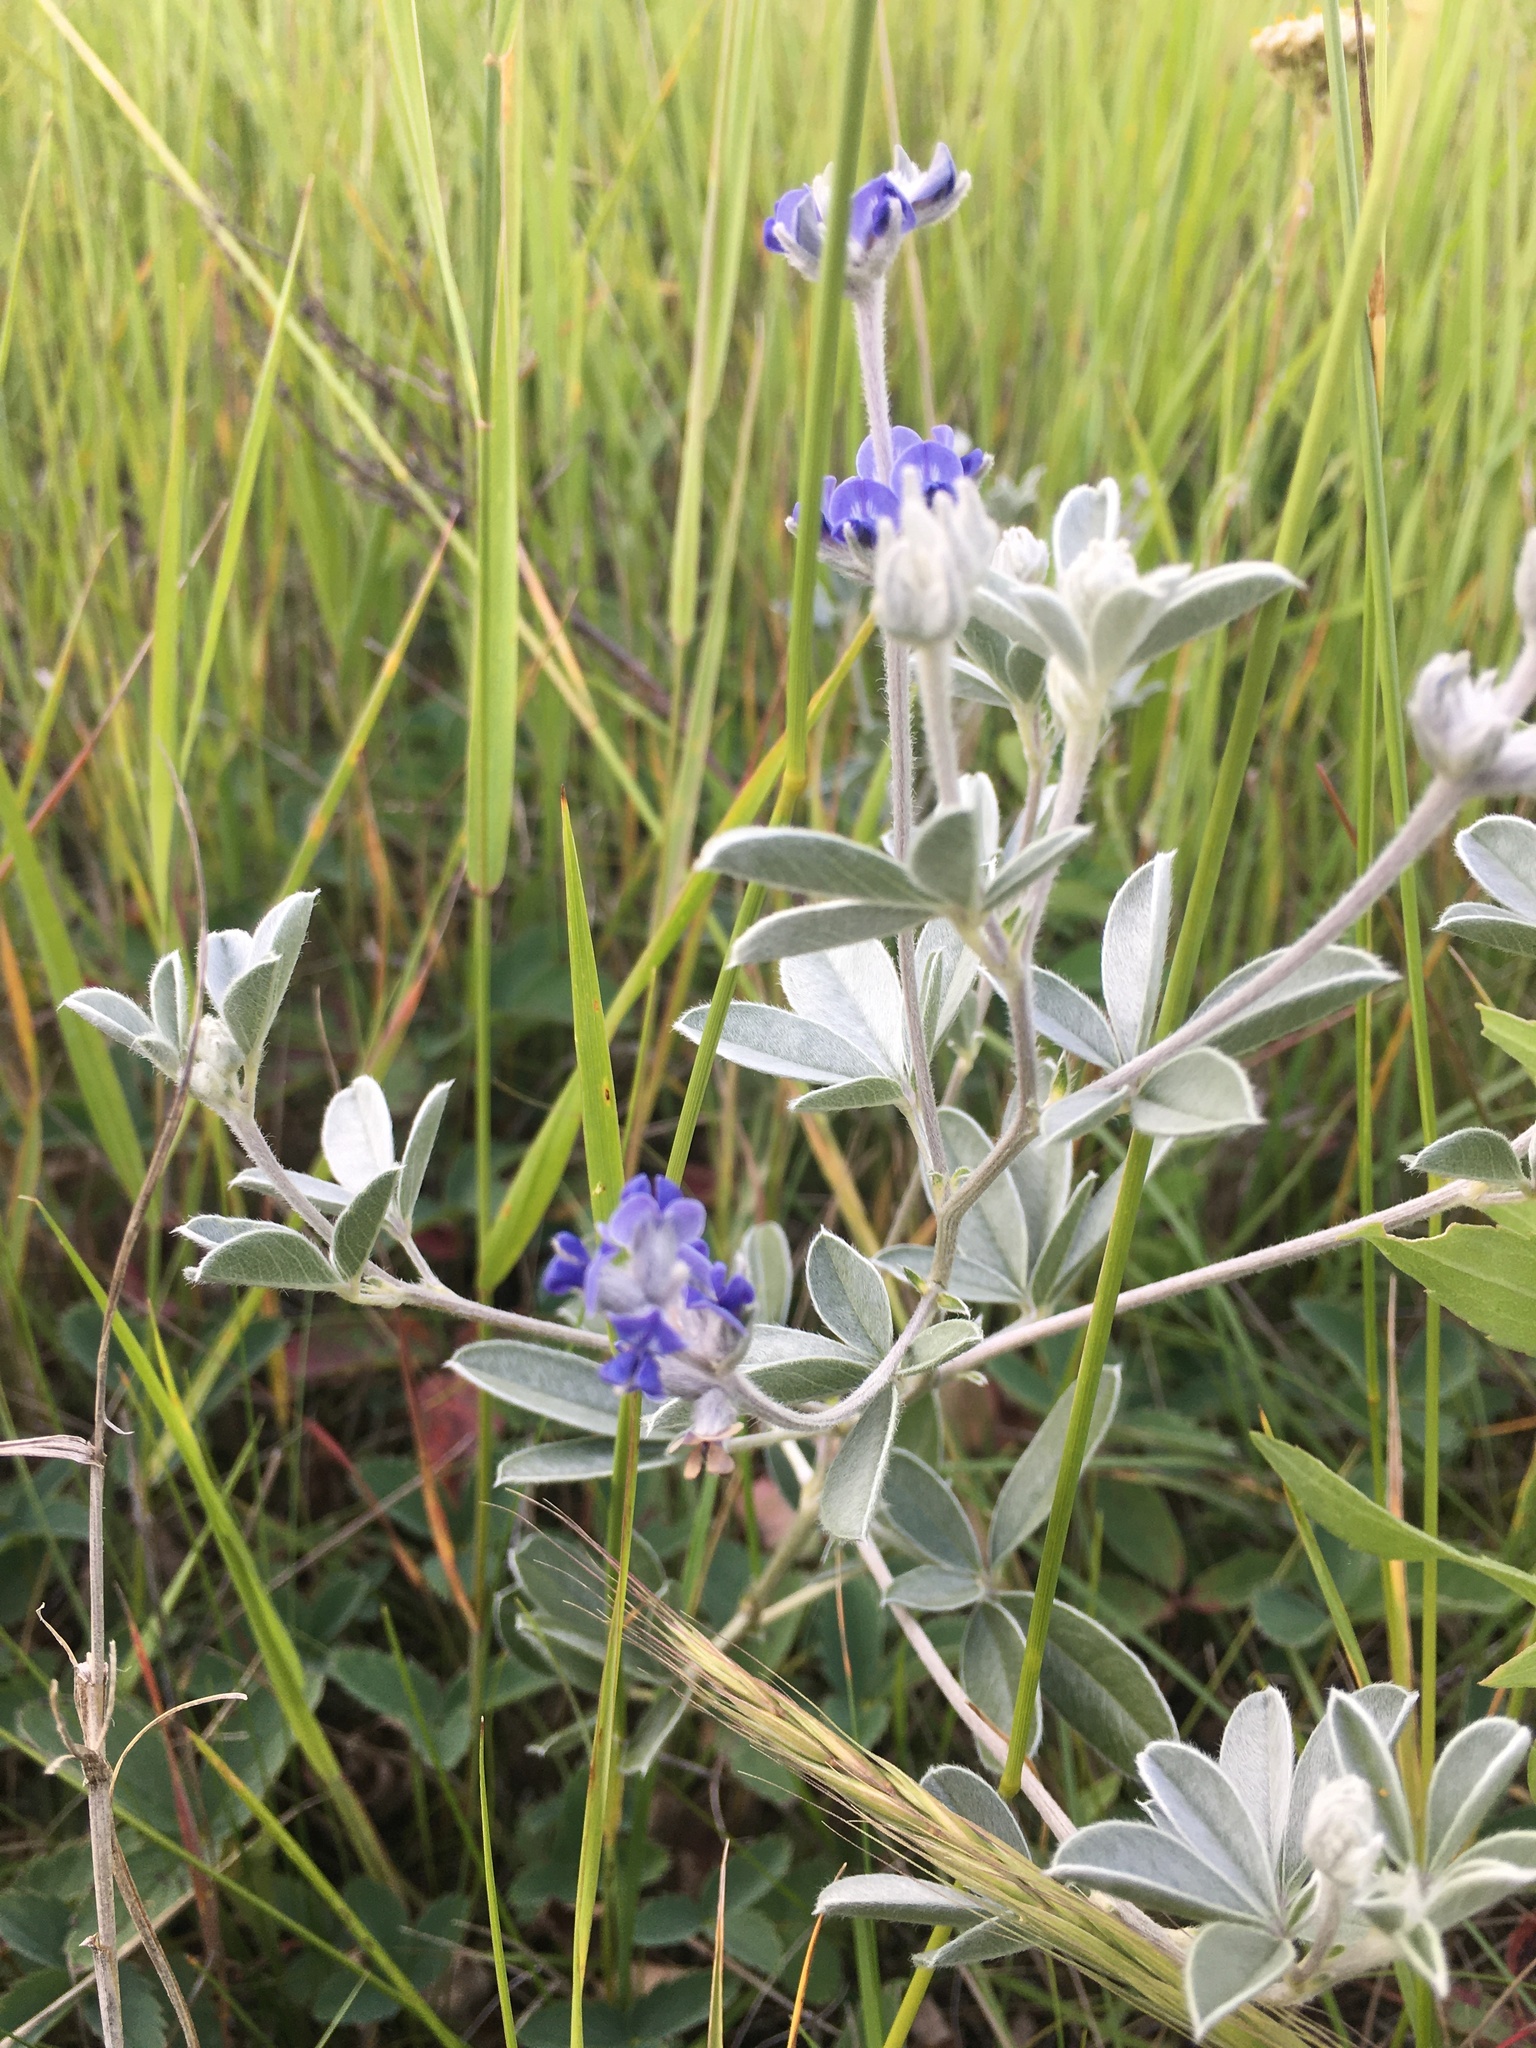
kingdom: Plantae
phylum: Tracheophyta
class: Magnoliopsida
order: Fabales
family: Fabaceae
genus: Pediomelum
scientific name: Pediomelum argophyllum
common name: Silver-leaved indian breadroot
